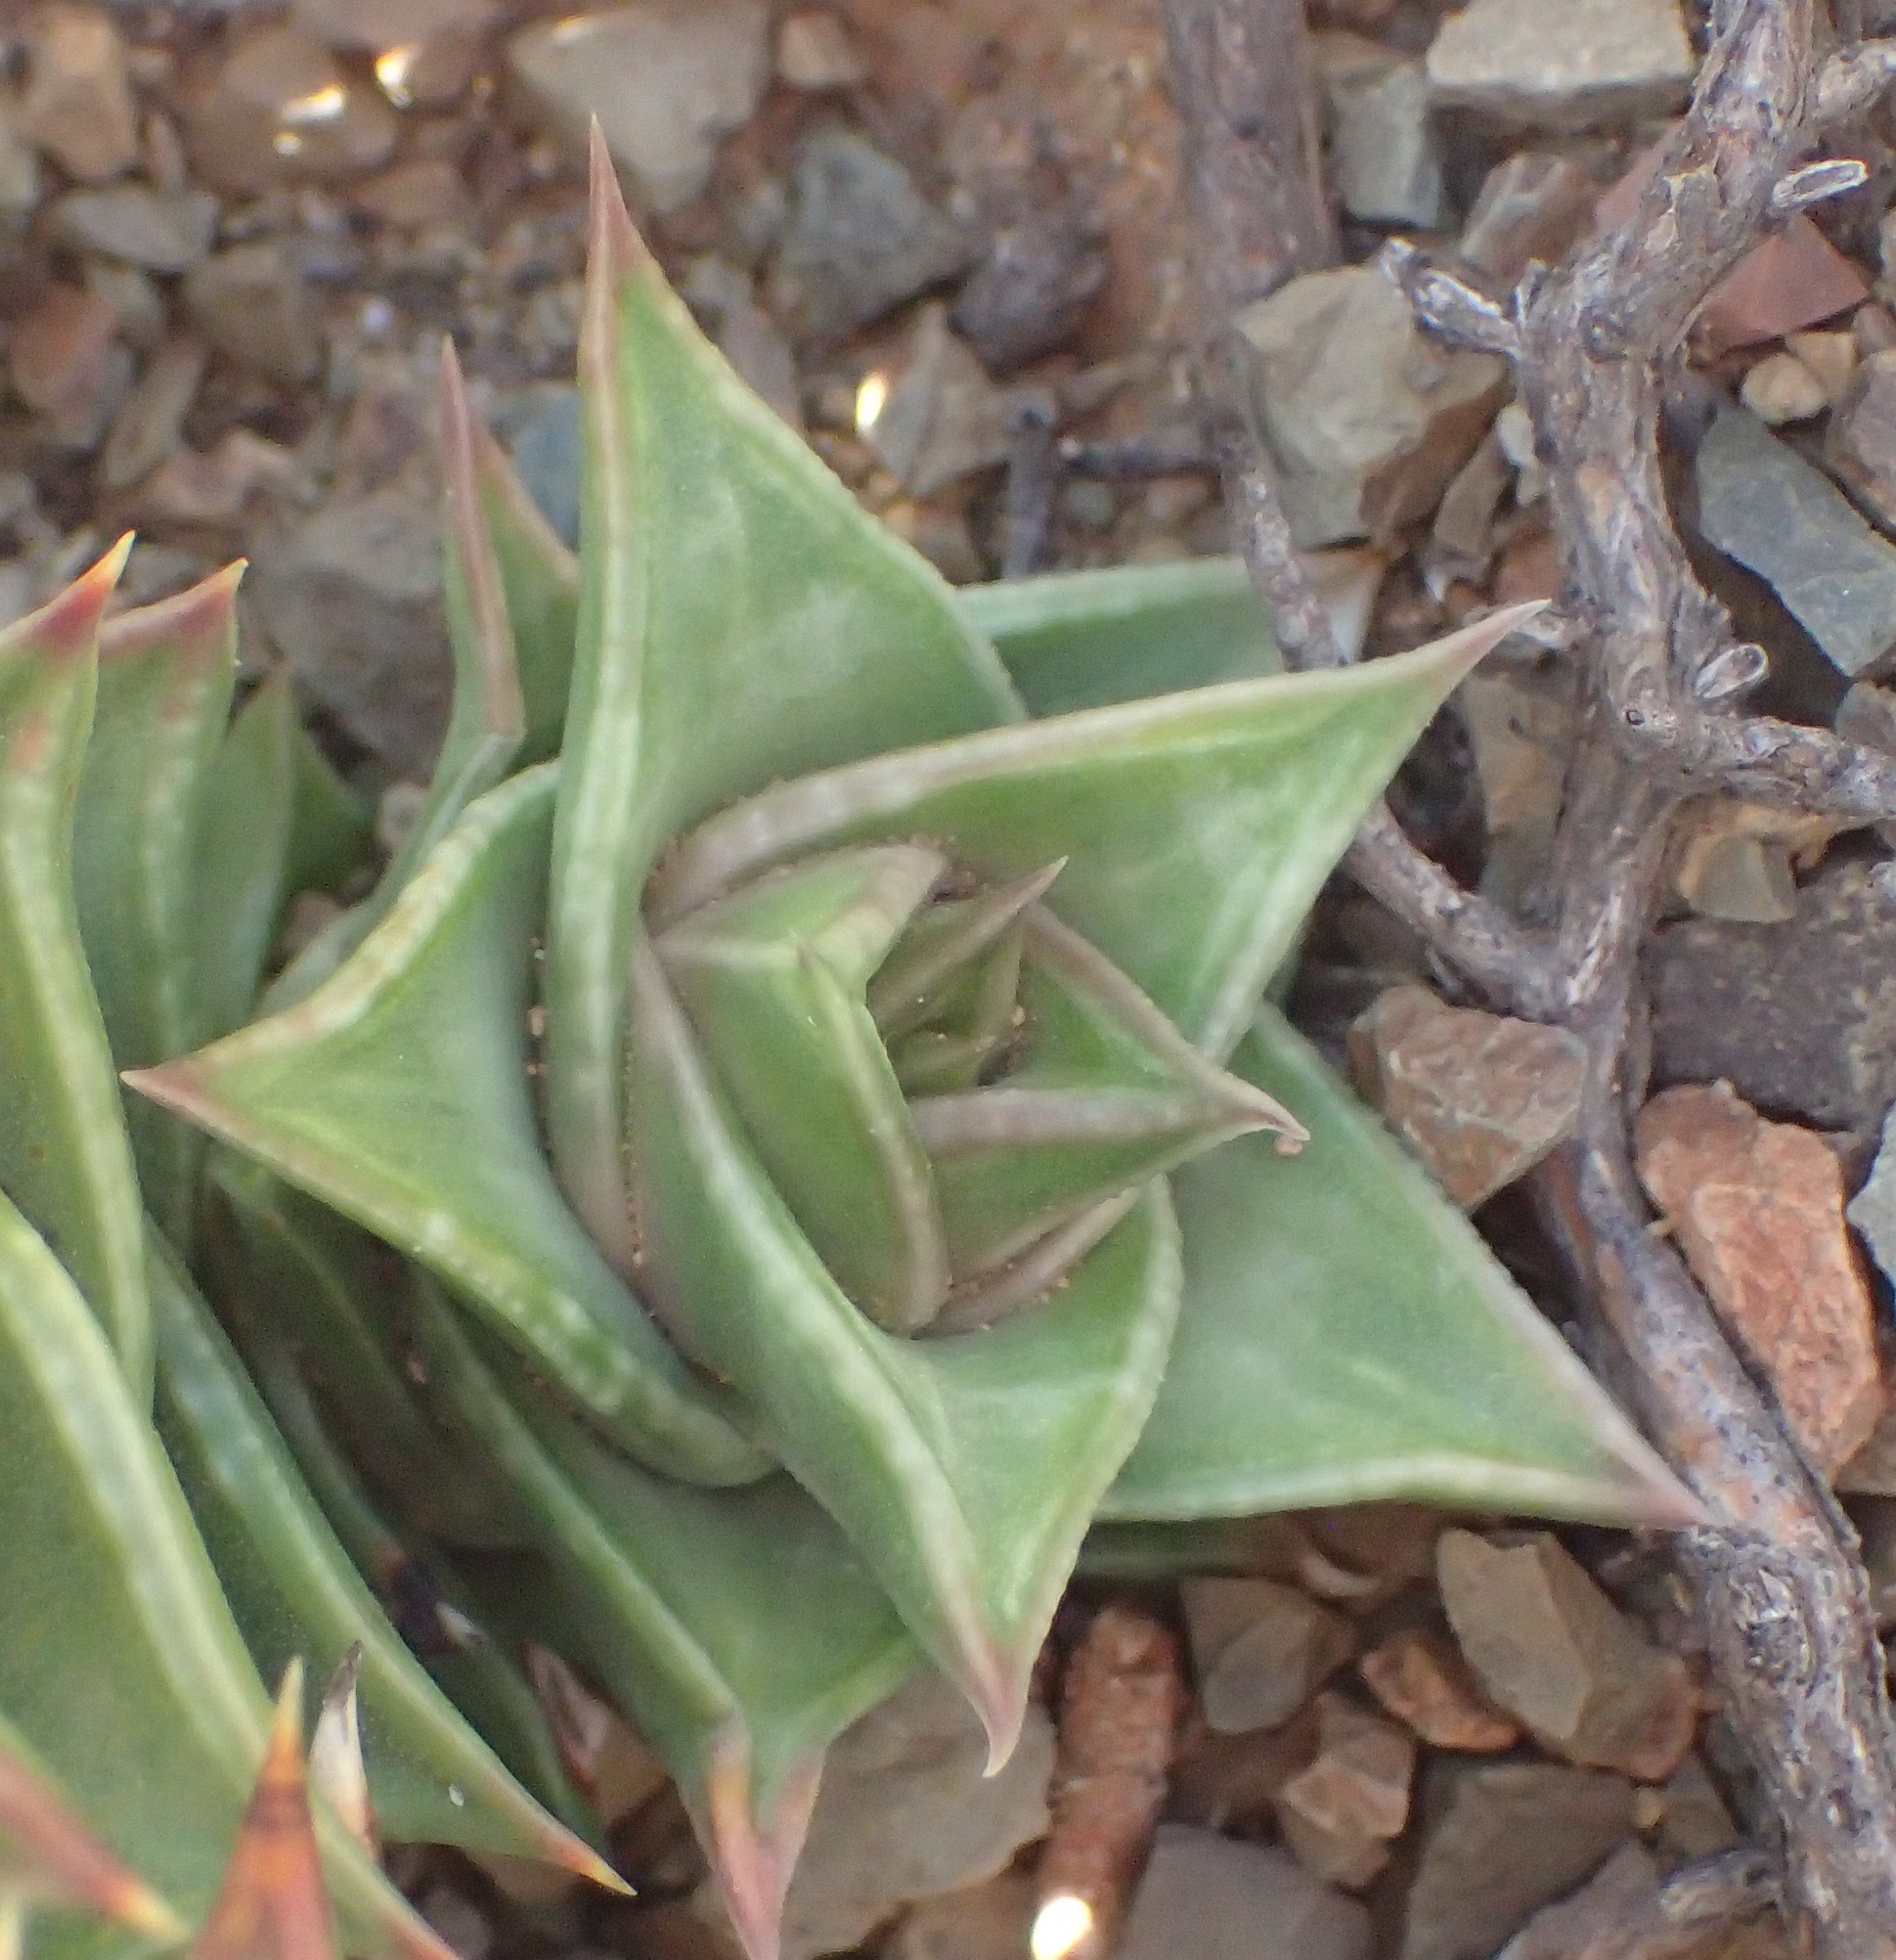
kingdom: Plantae
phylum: Tracheophyta
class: Liliopsida
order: Asparagales
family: Asphodelaceae
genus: Astroloba
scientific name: Astroloba robusta
